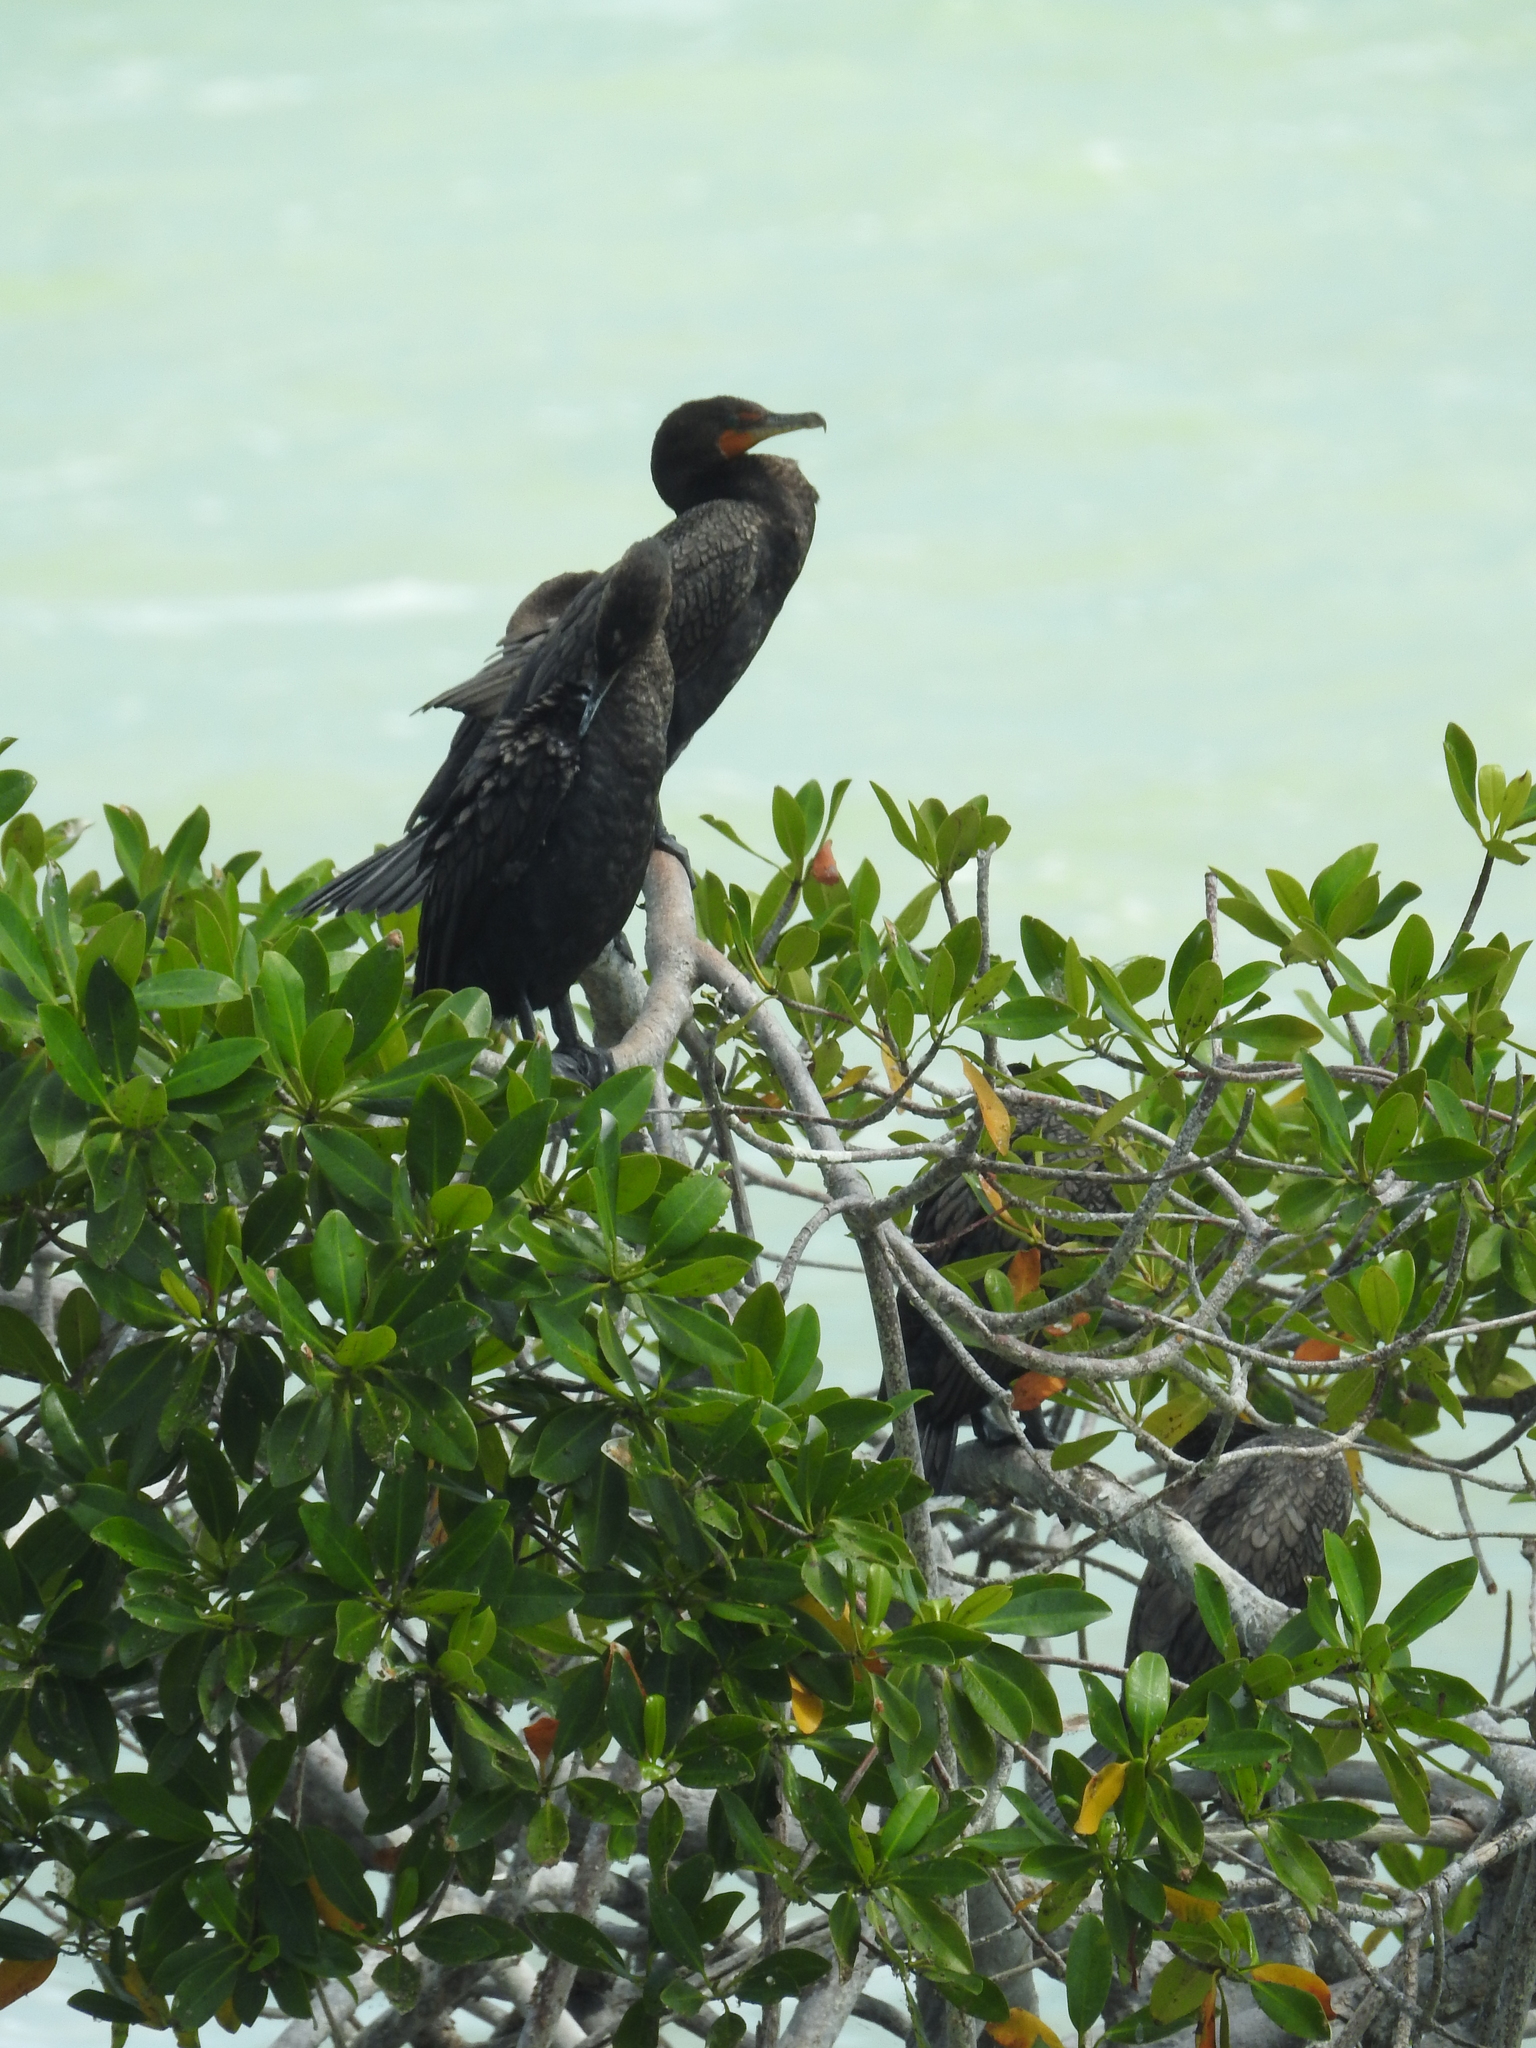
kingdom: Animalia
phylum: Chordata
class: Aves
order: Suliformes
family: Phalacrocoracidae
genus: Phalacrocorax
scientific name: Phalacrocorax brasilianus
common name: Neotropic cormorant
